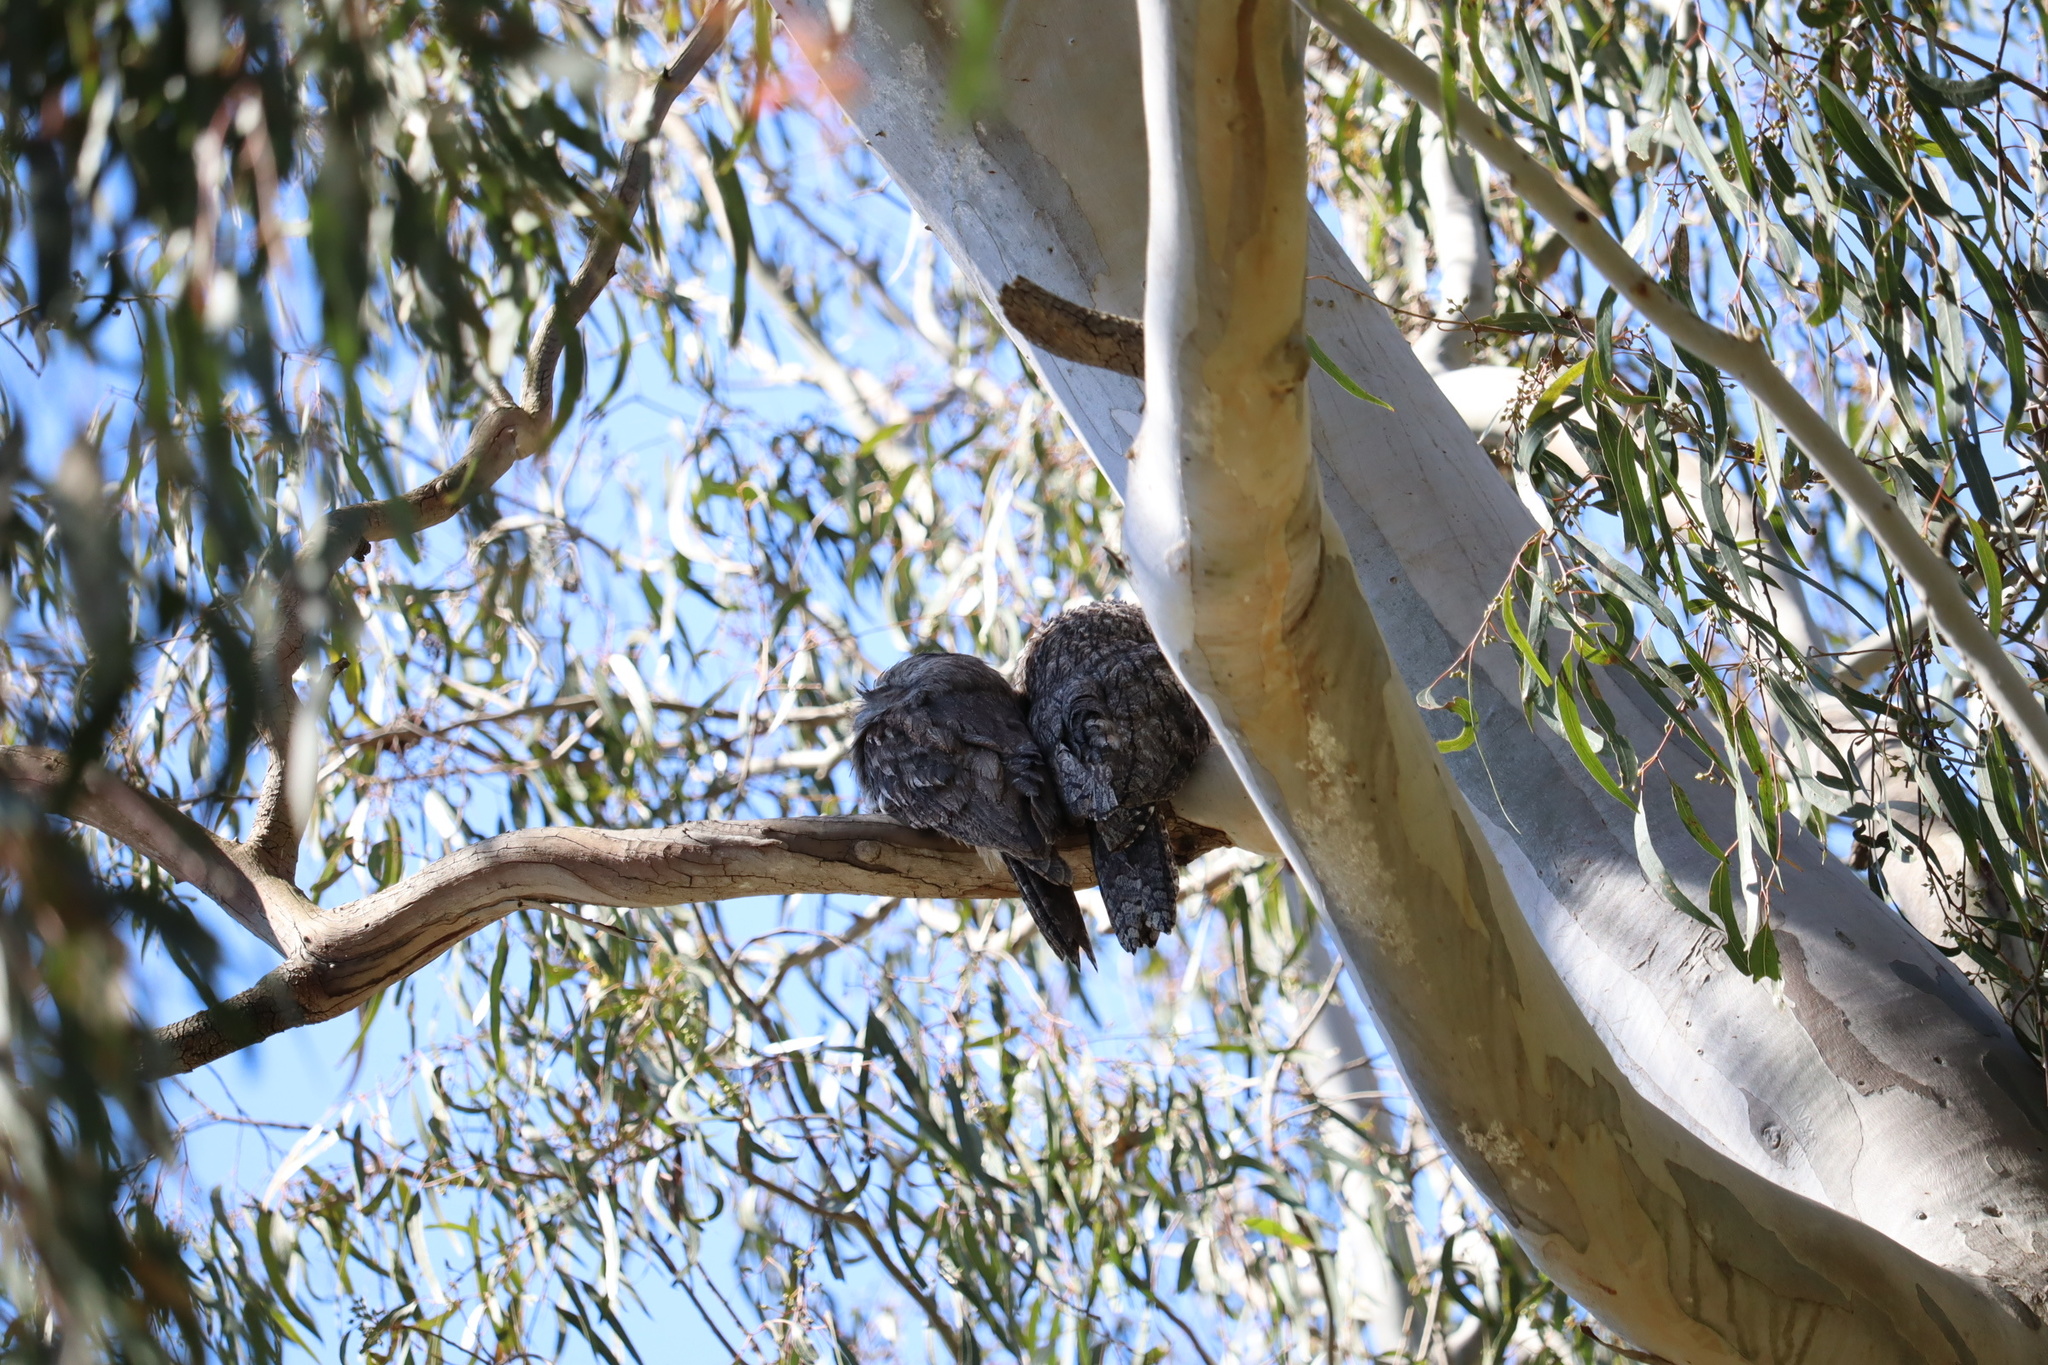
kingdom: Animalia
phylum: Chordata
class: Aves
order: Caprimulgiformes
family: Podargidae
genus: Podargus
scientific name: Podargus strigoides
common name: Tawny frogmouth
